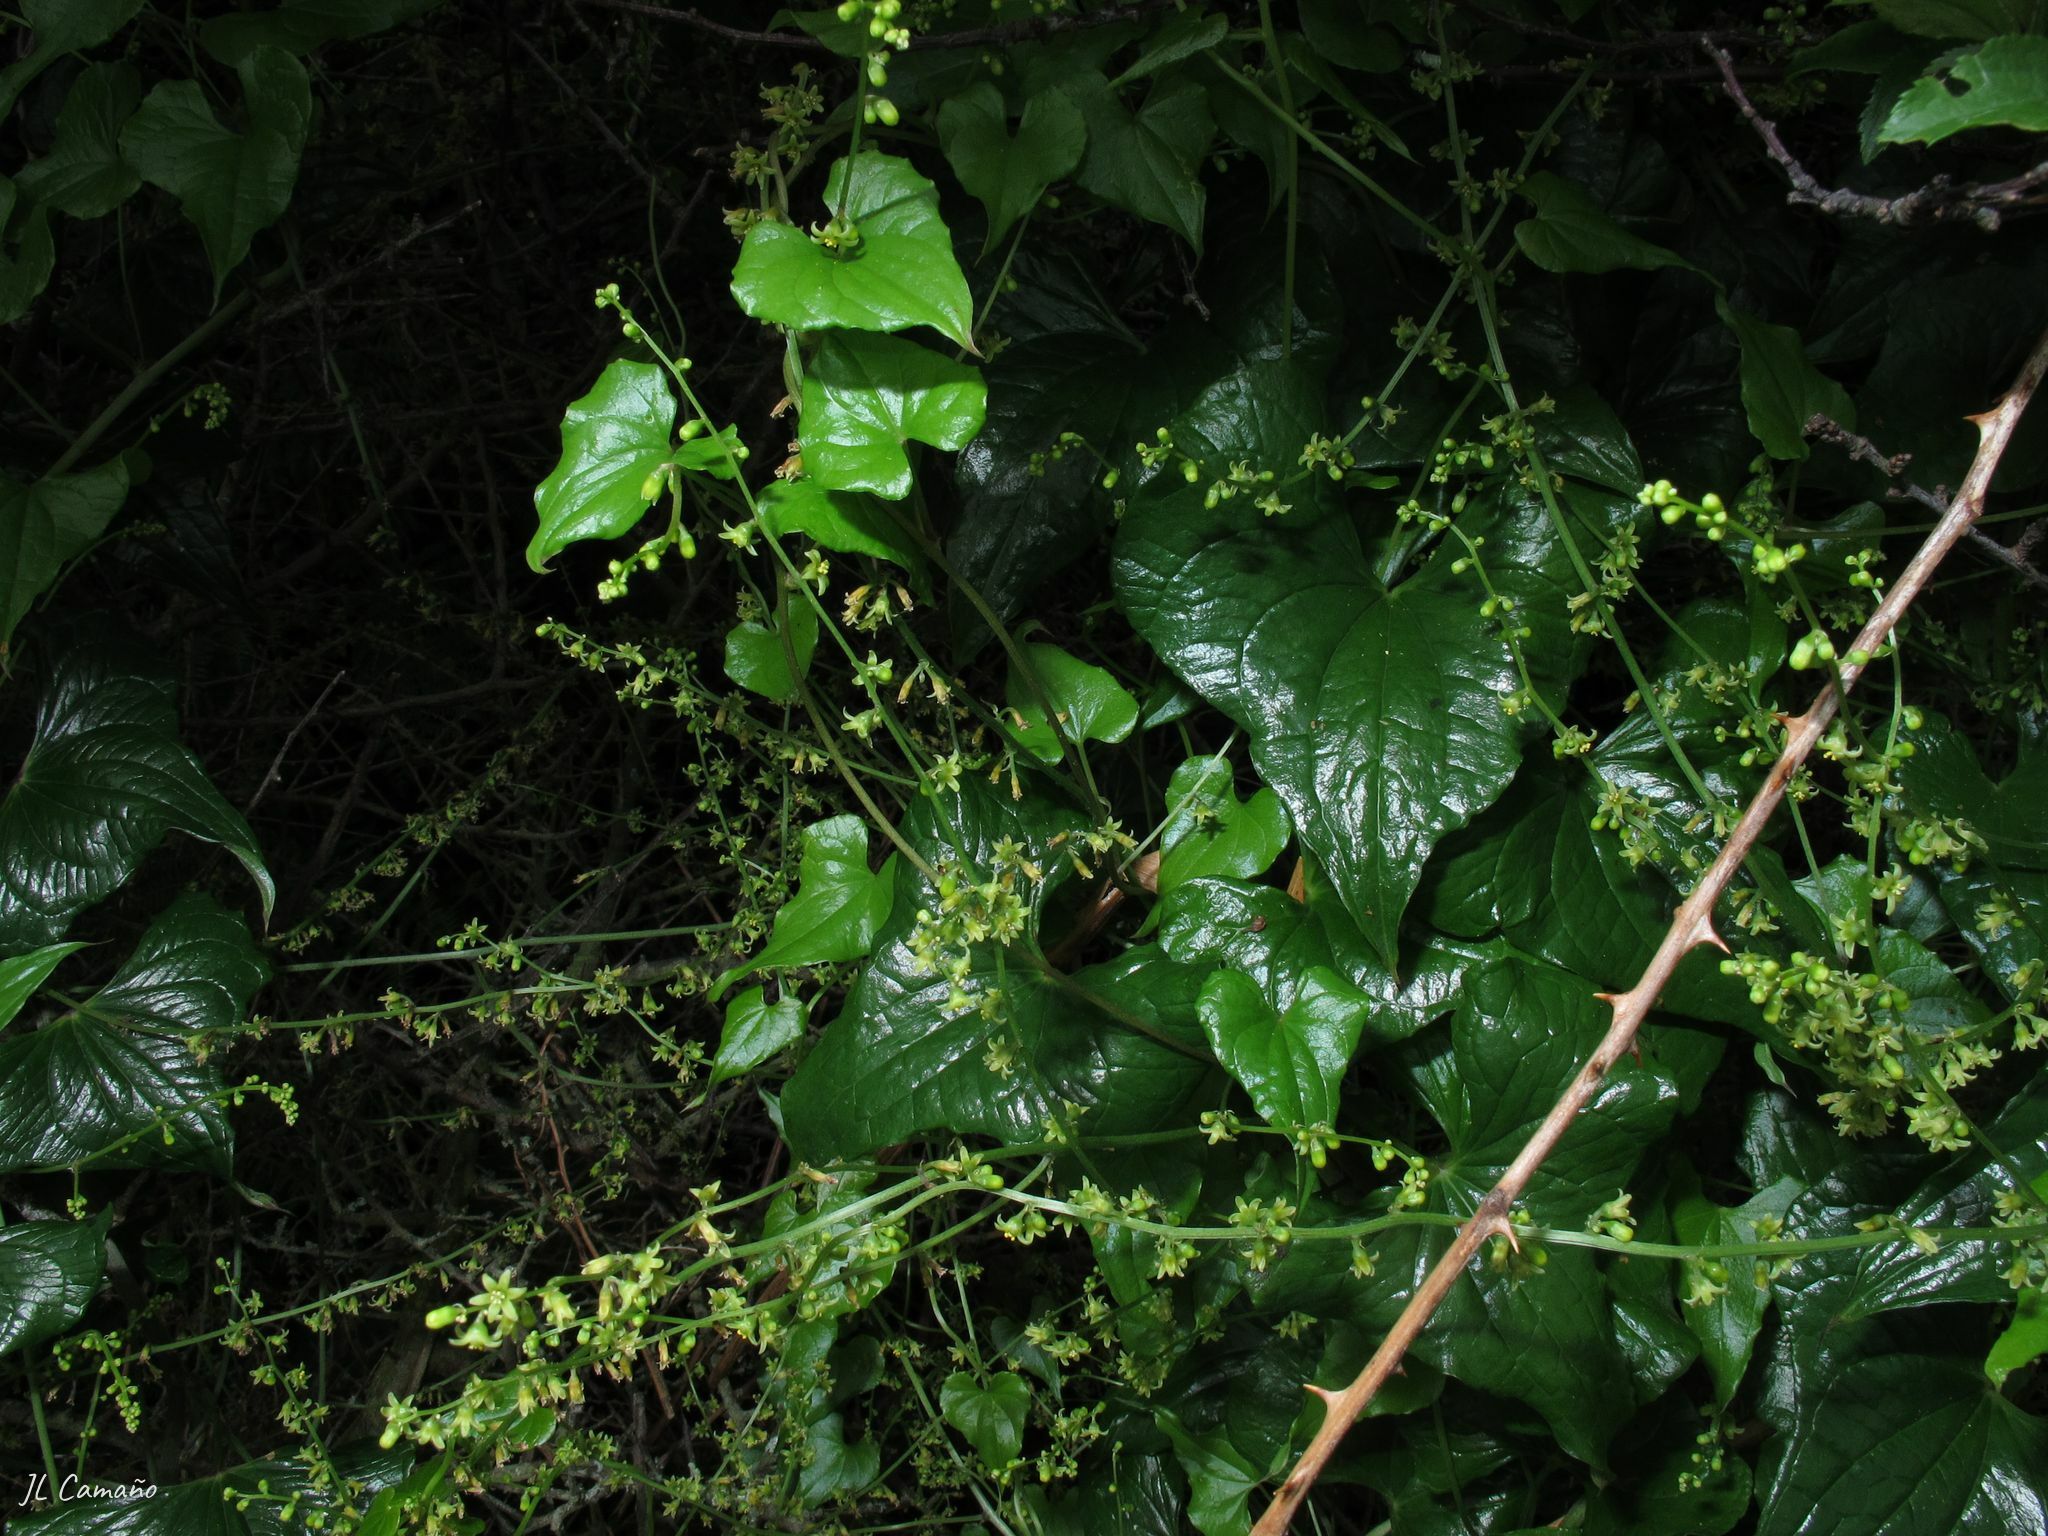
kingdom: Plantae
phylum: Tracheophyta
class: Liliopsida
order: Dioscoreales
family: Dioscoreaceae
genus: Dioscorea
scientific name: Dioscorea communis
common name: Black-bindweed
